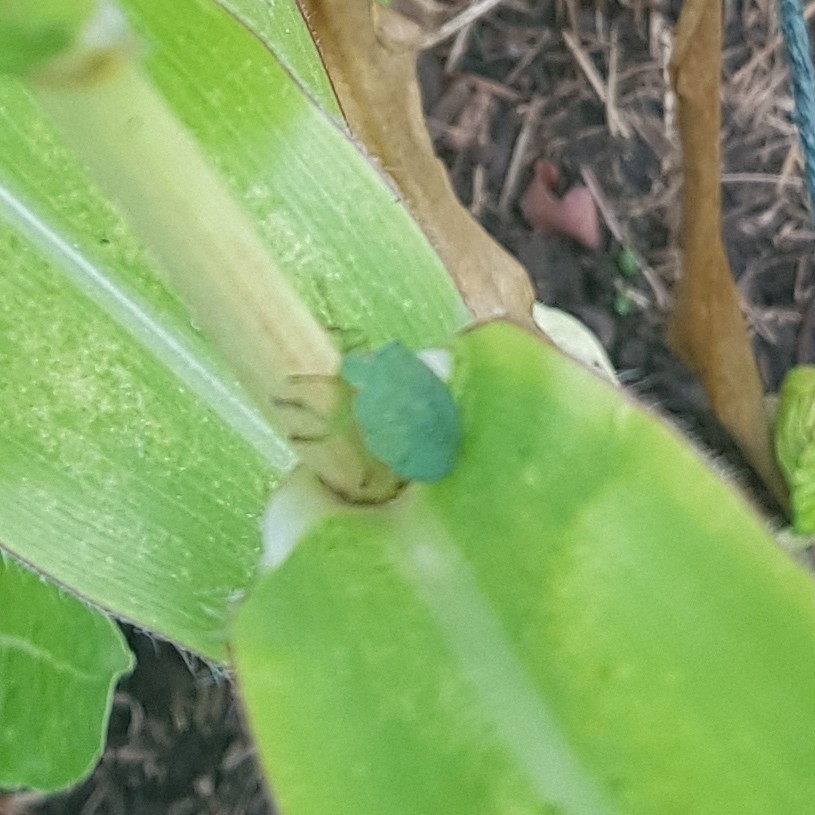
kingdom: Animalia
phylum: Arthropoda
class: Insecta
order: Hemiptera
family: Pentatomidae
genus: Palomena
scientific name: Palomena prasina
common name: Green shieldbug
